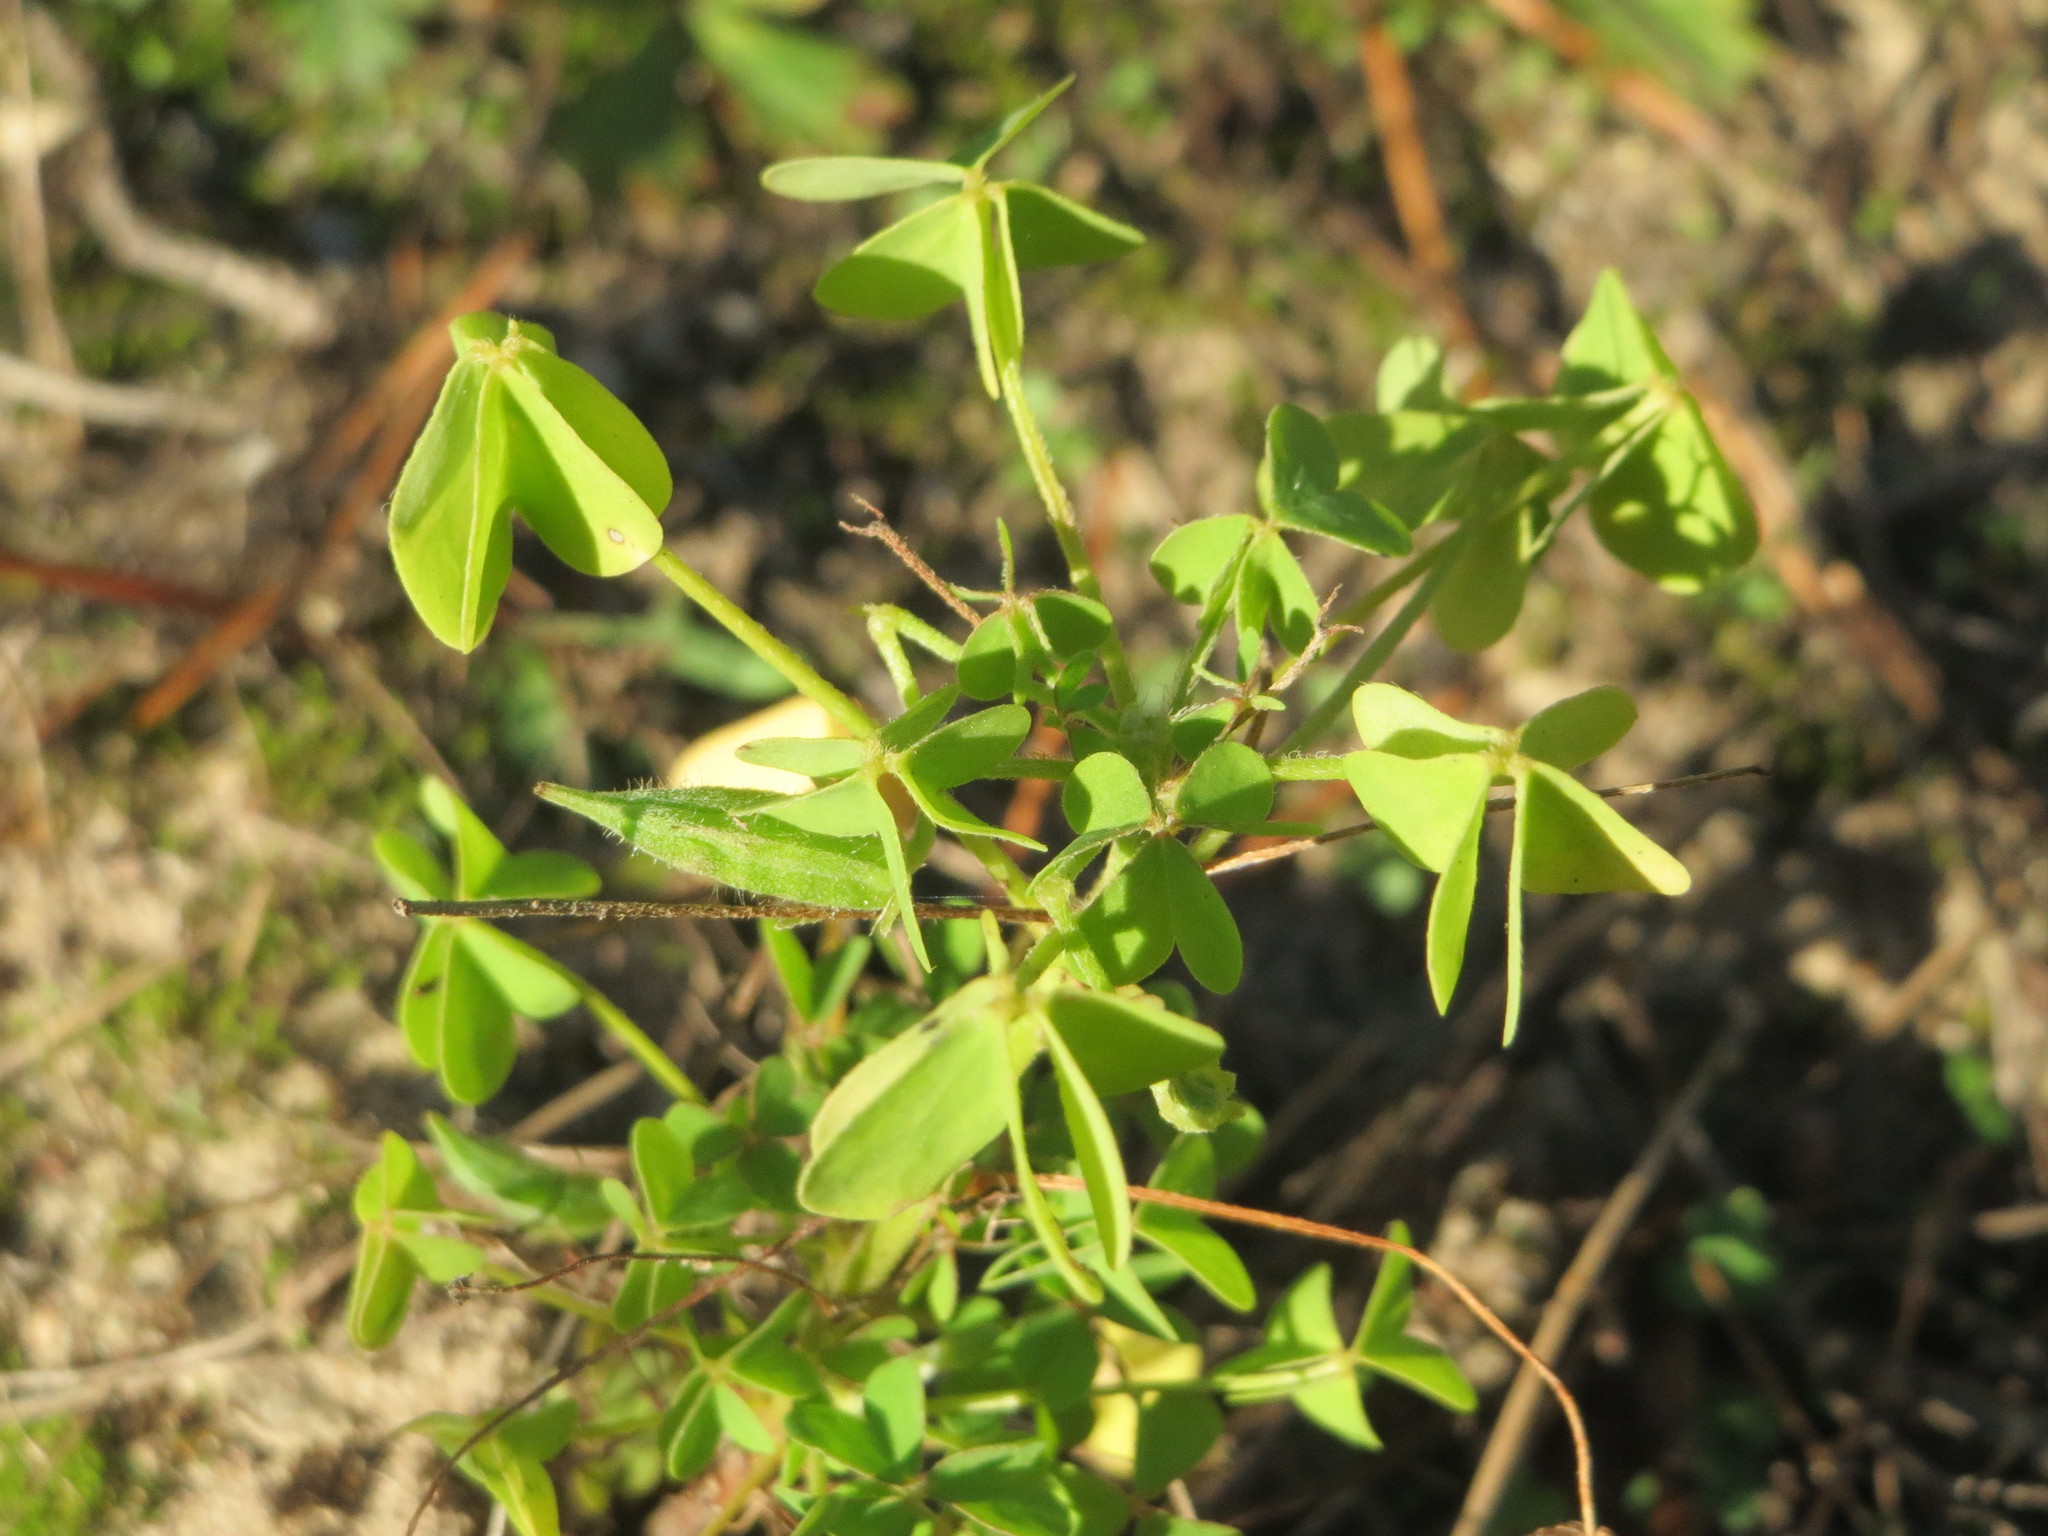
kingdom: Plantae
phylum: Tracheophyta
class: Magnoliopsida
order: Oxalidales
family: Oxalidaceae
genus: Oxalis
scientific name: Oxalis stricta
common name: Upright yellow-sorrel
